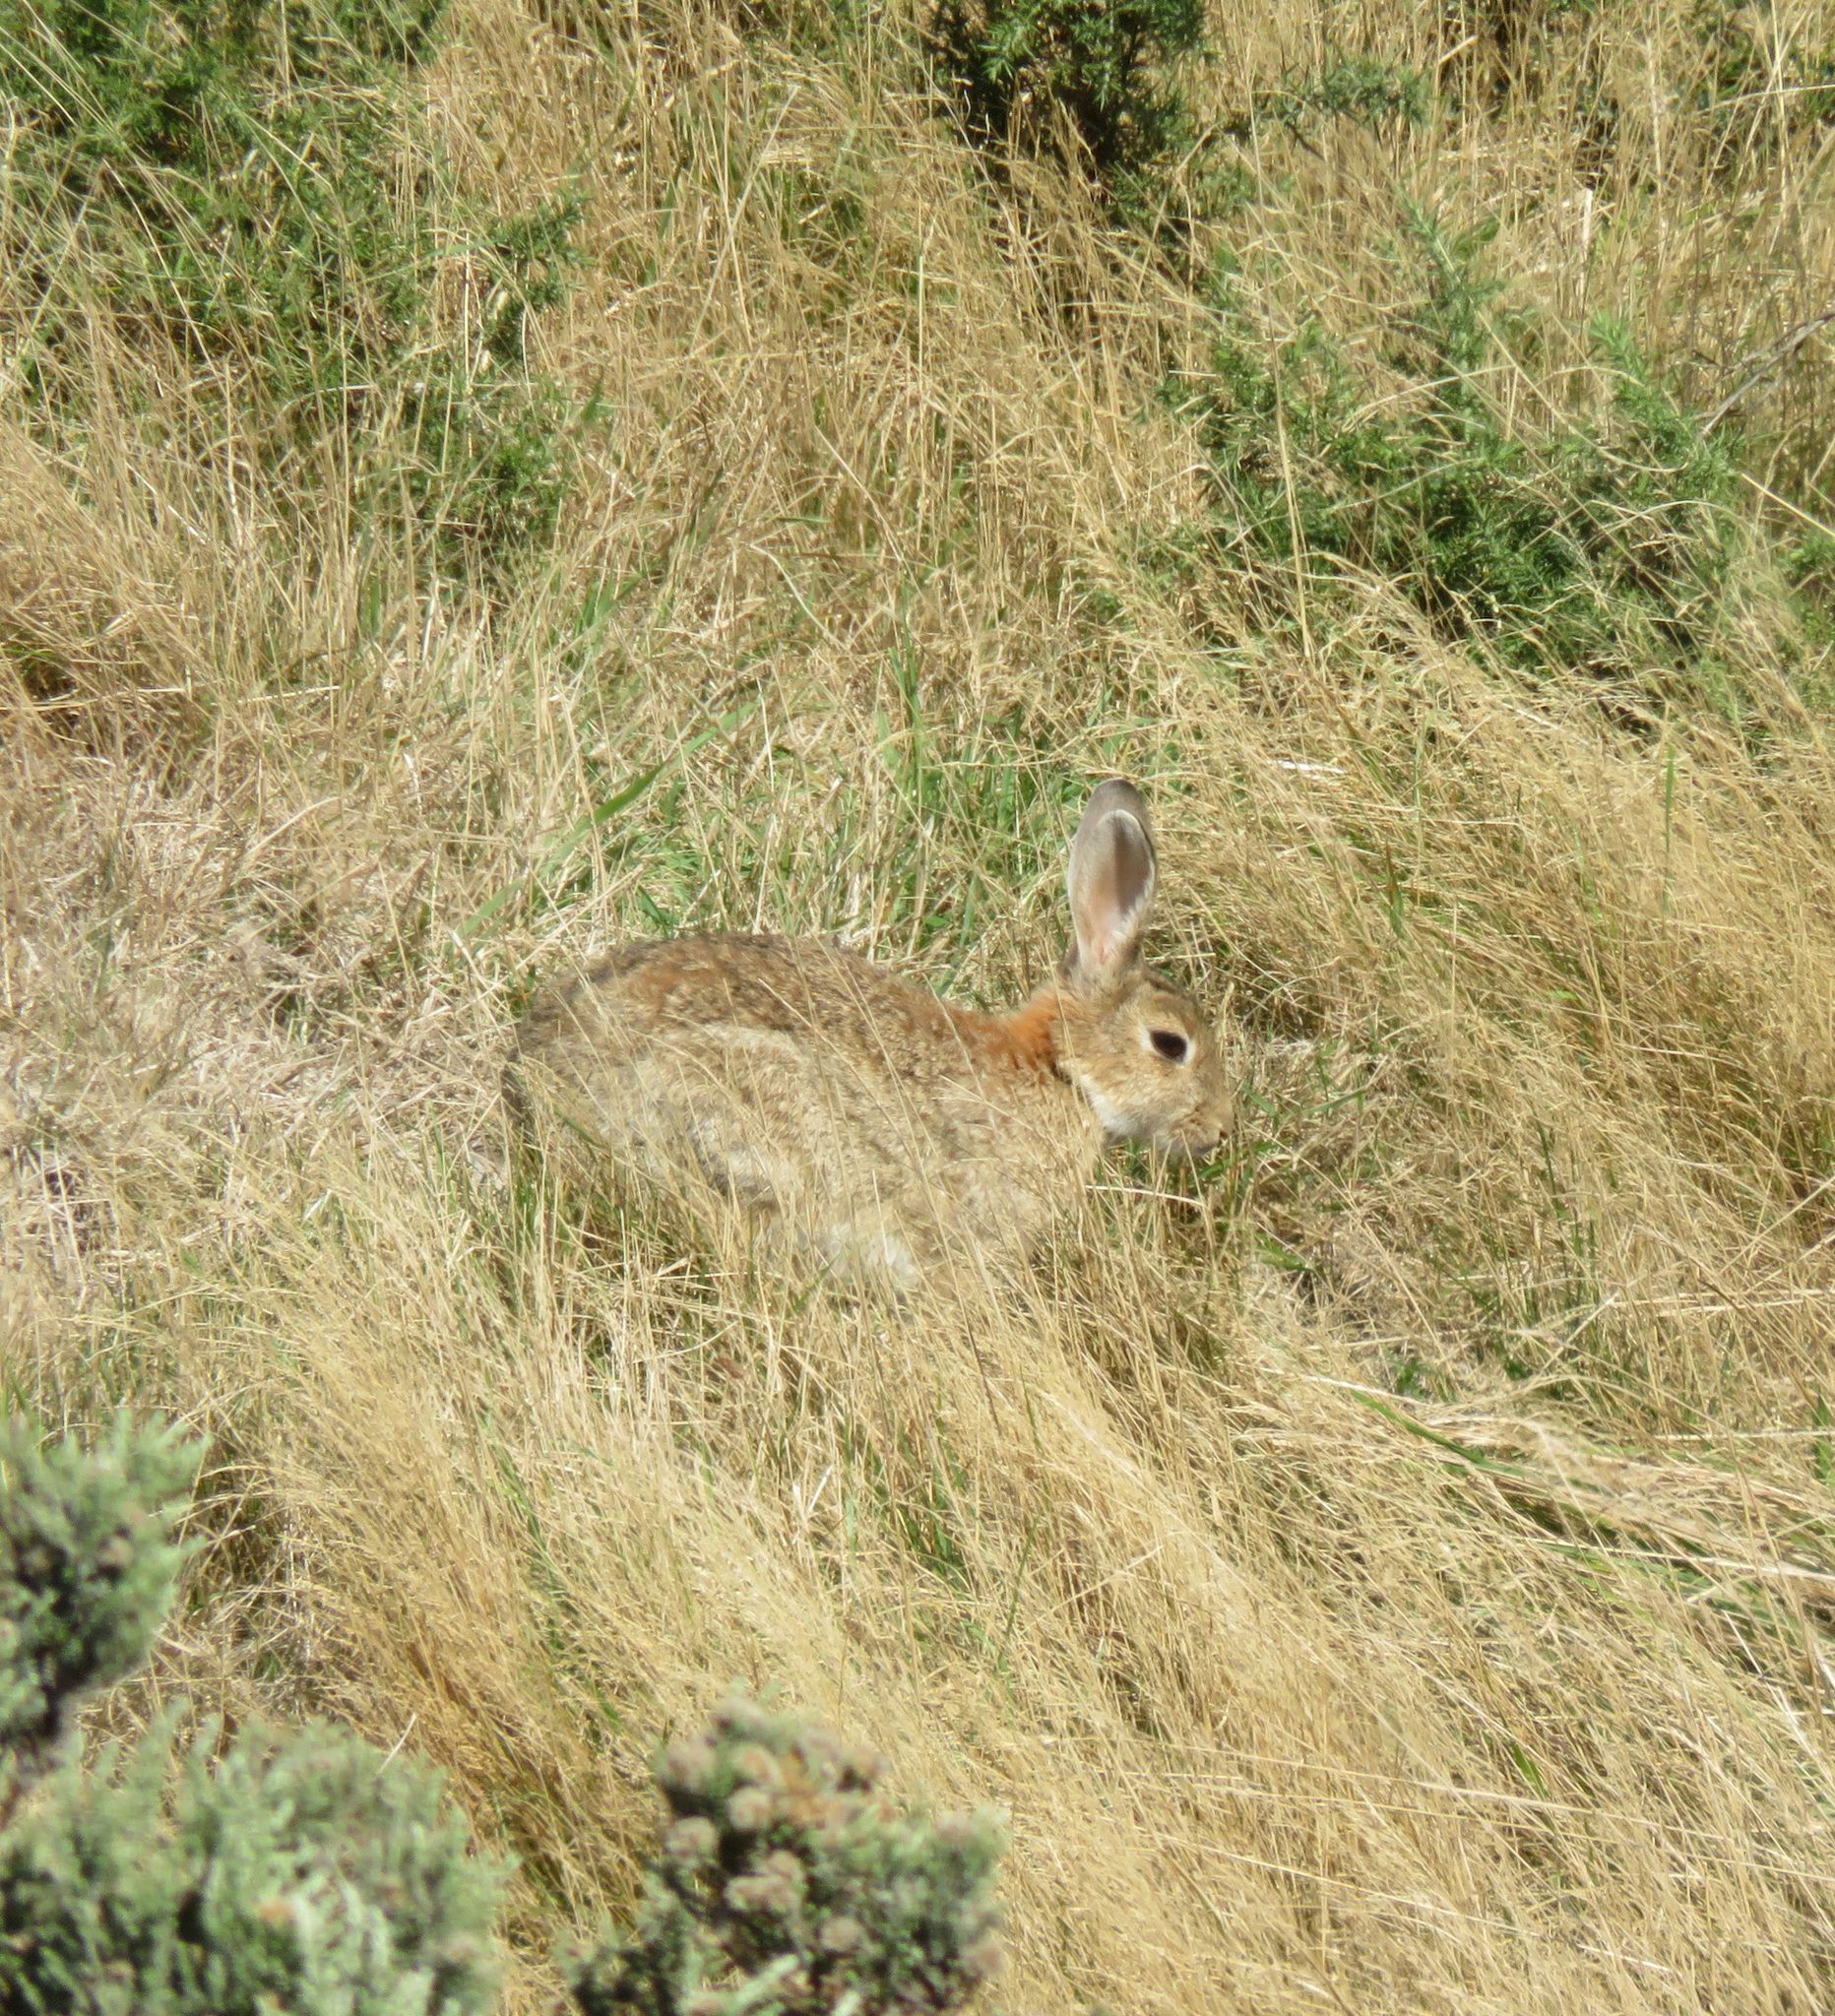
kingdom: Animalia
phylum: Chordata
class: Mammalia
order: Lagomorpha
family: Leporidae
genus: Oryctolagus
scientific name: Oryctolagus cuniculus
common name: European rabbit
